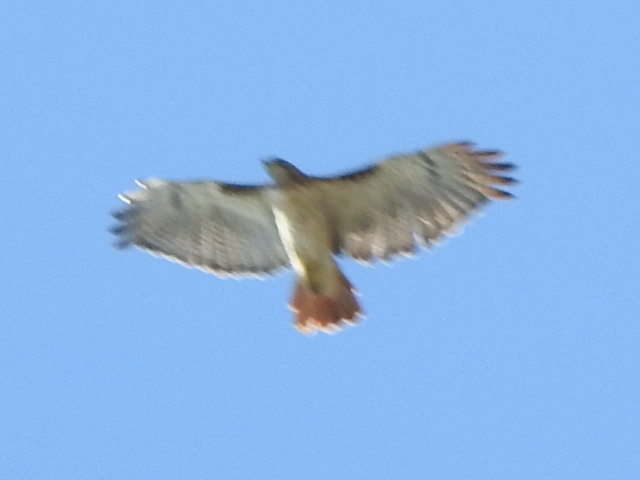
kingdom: Animalia
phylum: Chordata
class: Aves
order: Accipitriformes
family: Accipitridae
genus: Buteo
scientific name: Buteo jamaicensis
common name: Red-tailed hawk
